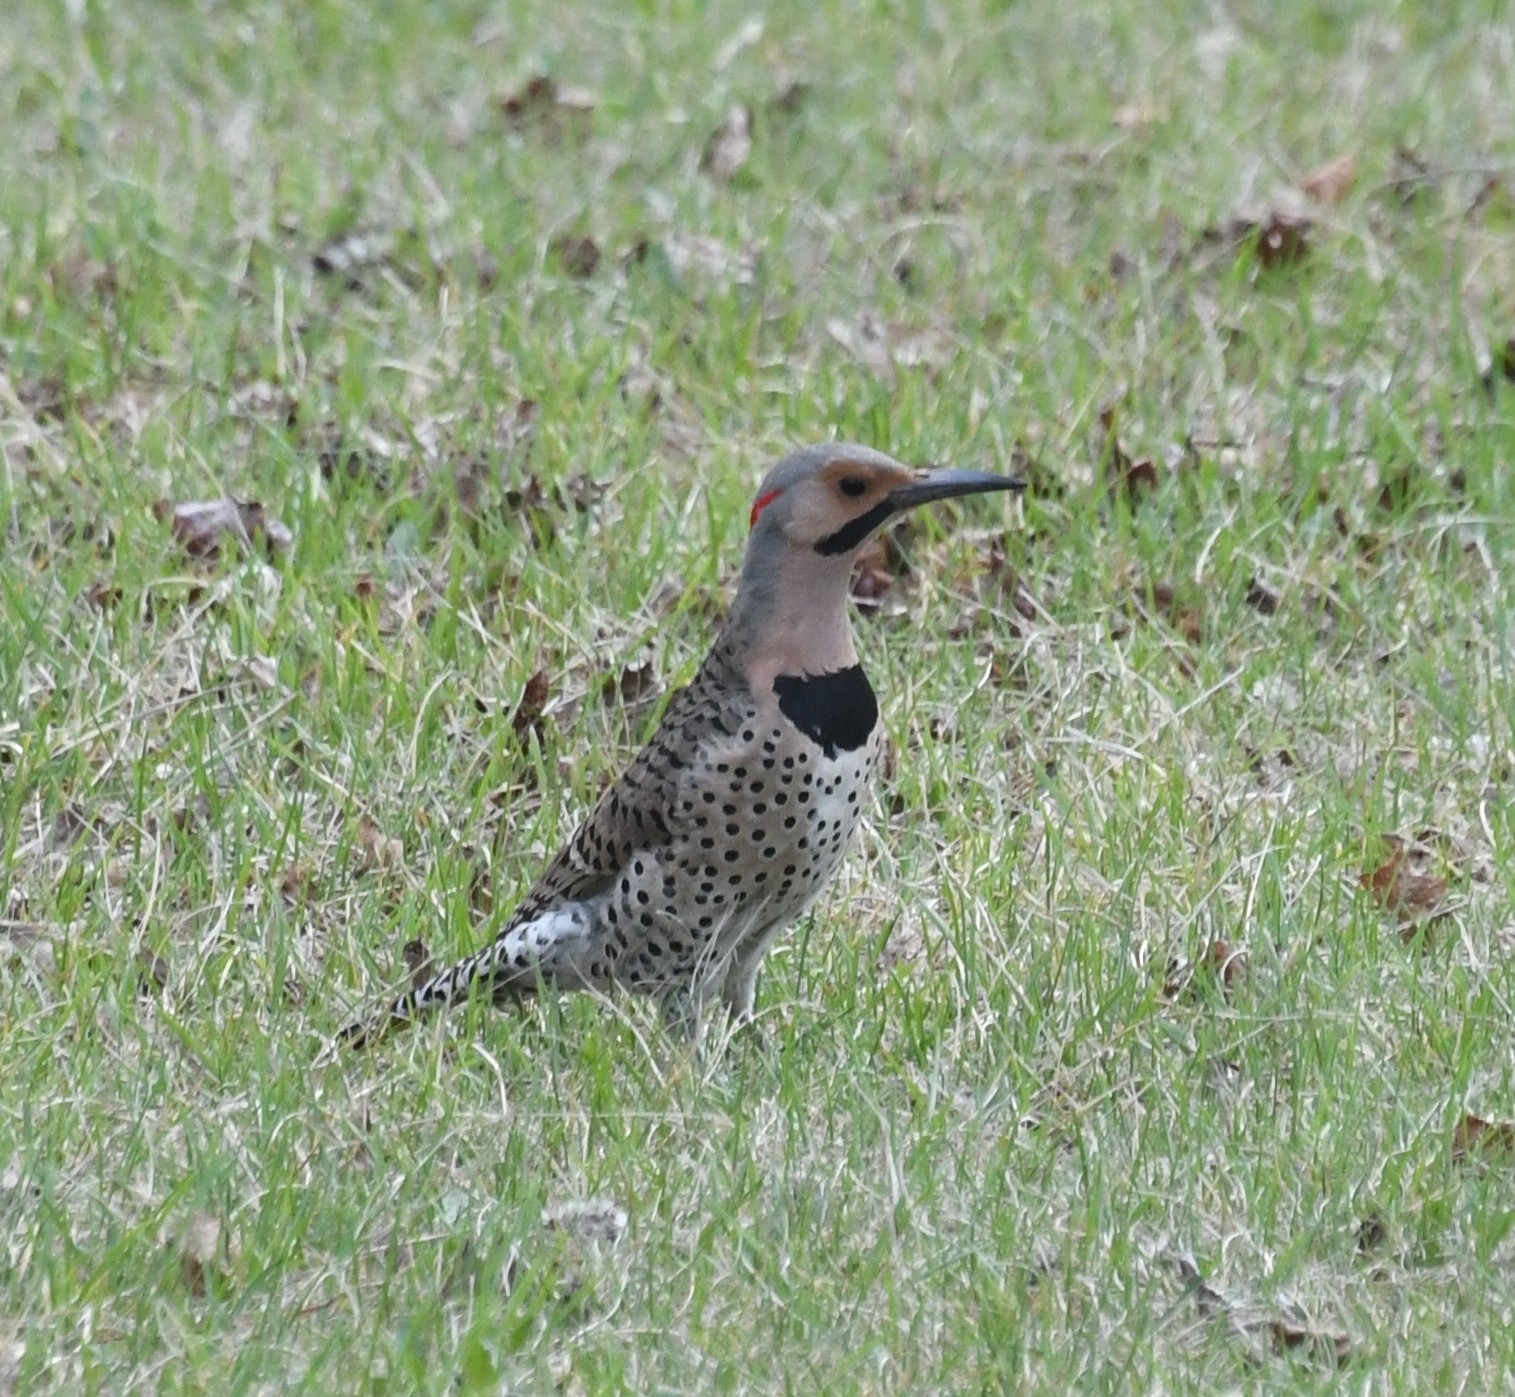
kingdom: Animalia
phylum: Chordata
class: Aves
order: Piciformes
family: Picidae
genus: Colaptes
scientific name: Colaptes auratus
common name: Northern flicker
